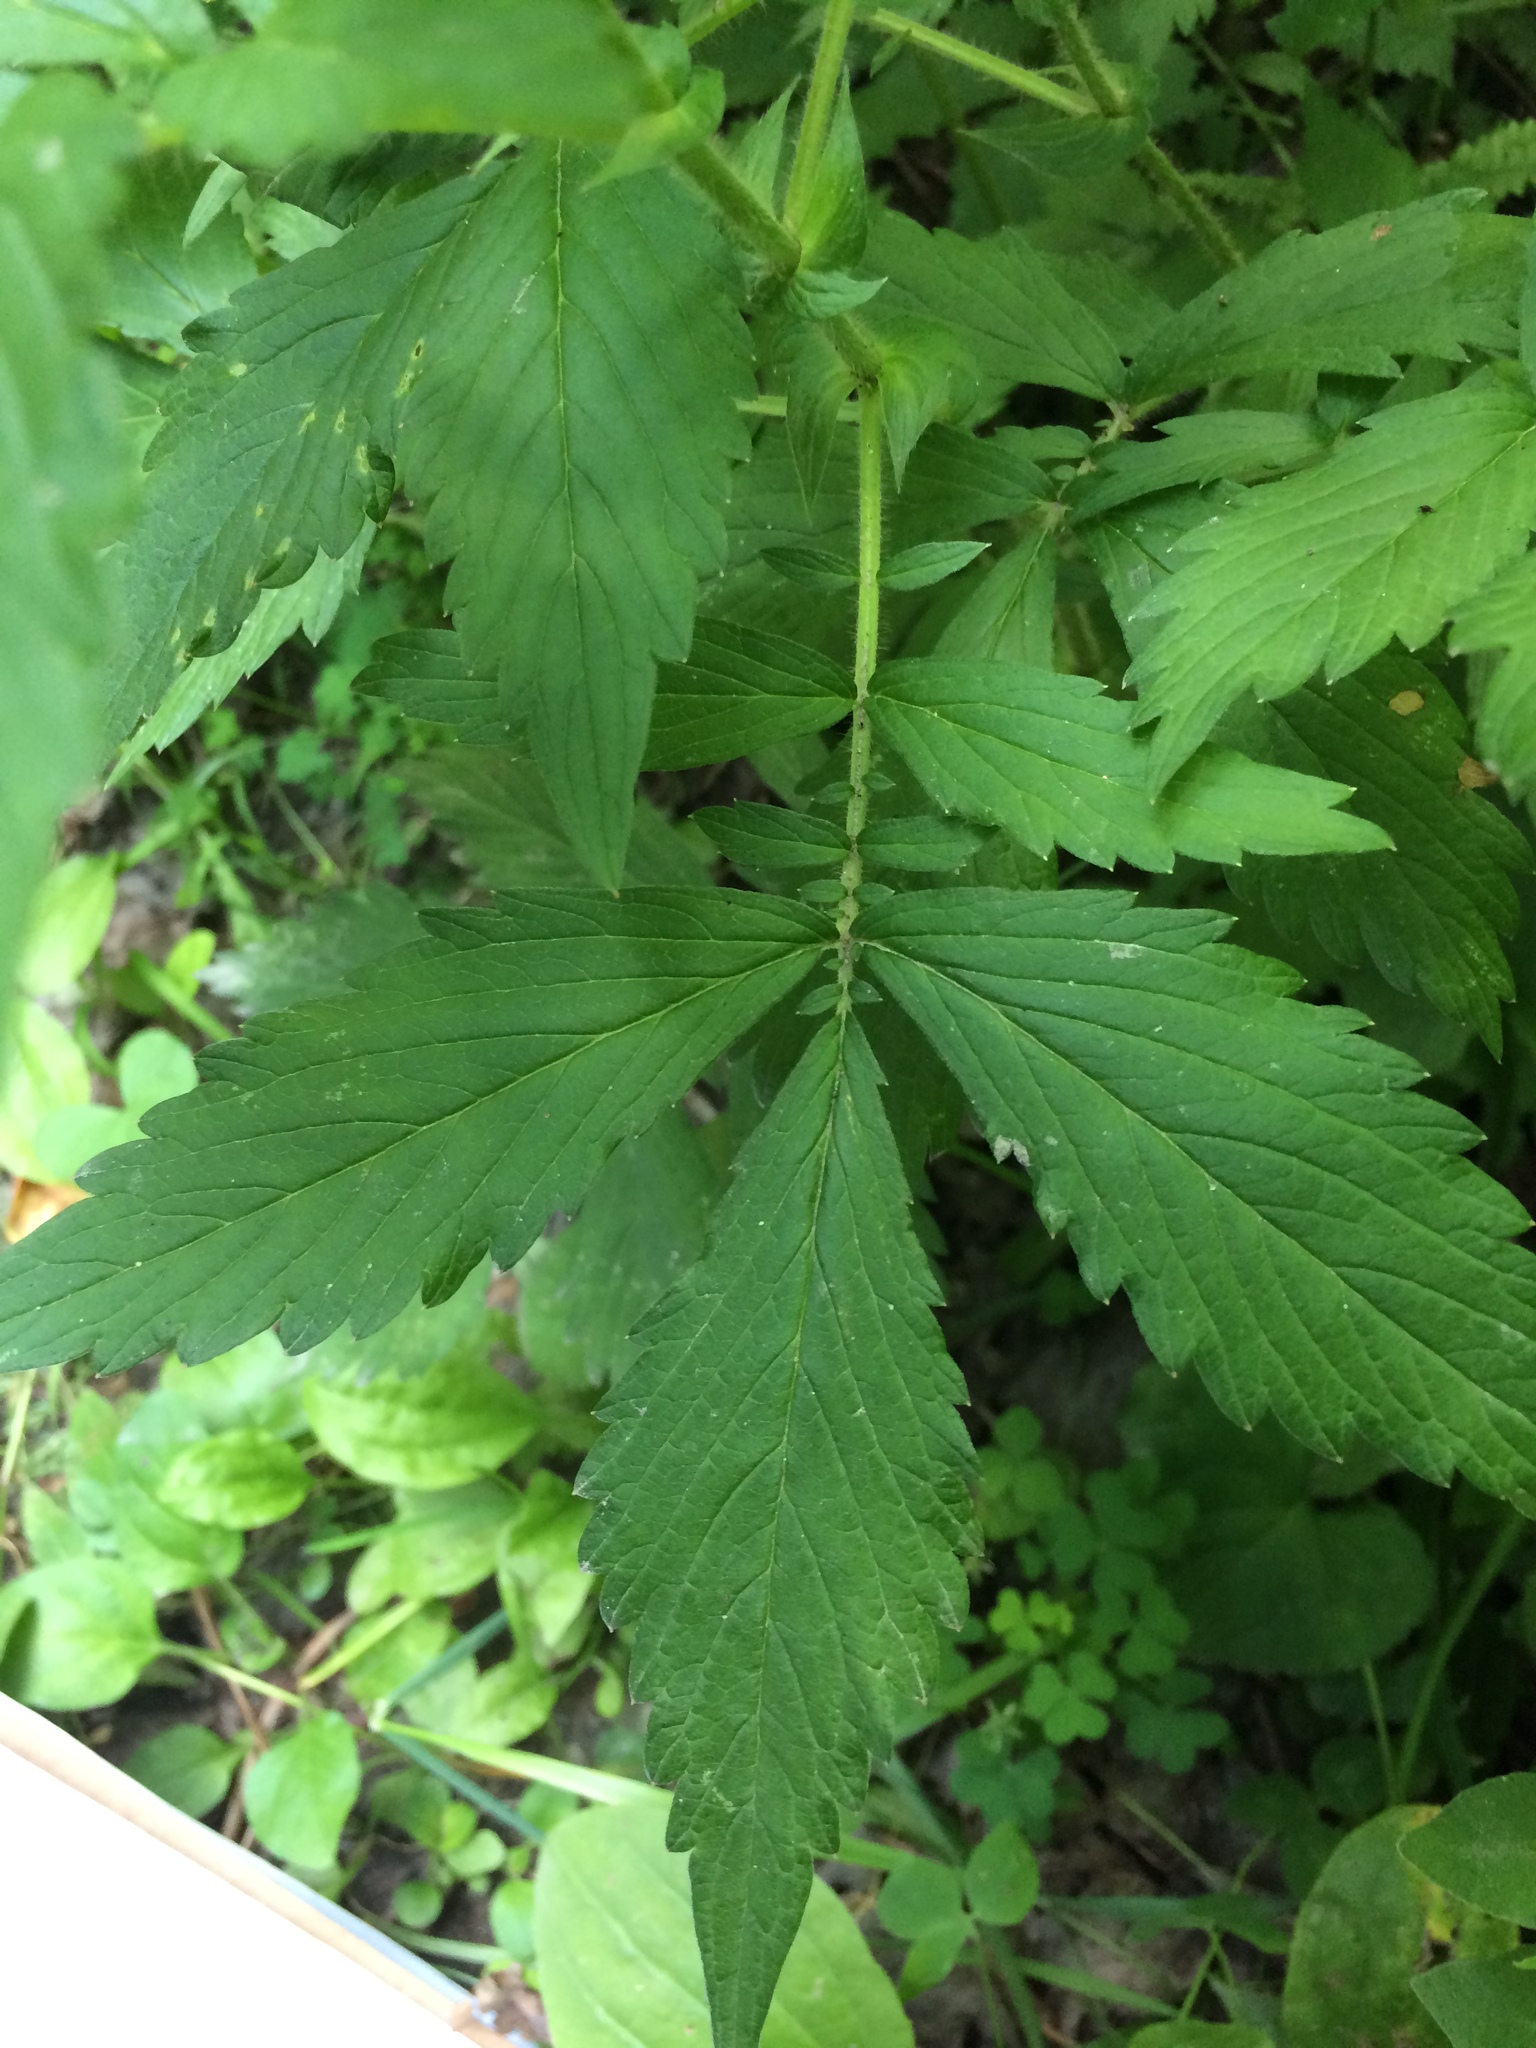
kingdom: Plantae
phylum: Tracheophyta
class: Magnoliopsida
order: Rosales
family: Rosaceae
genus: Agrimonia
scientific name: Agrimonia striata
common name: Britton's agrimony
